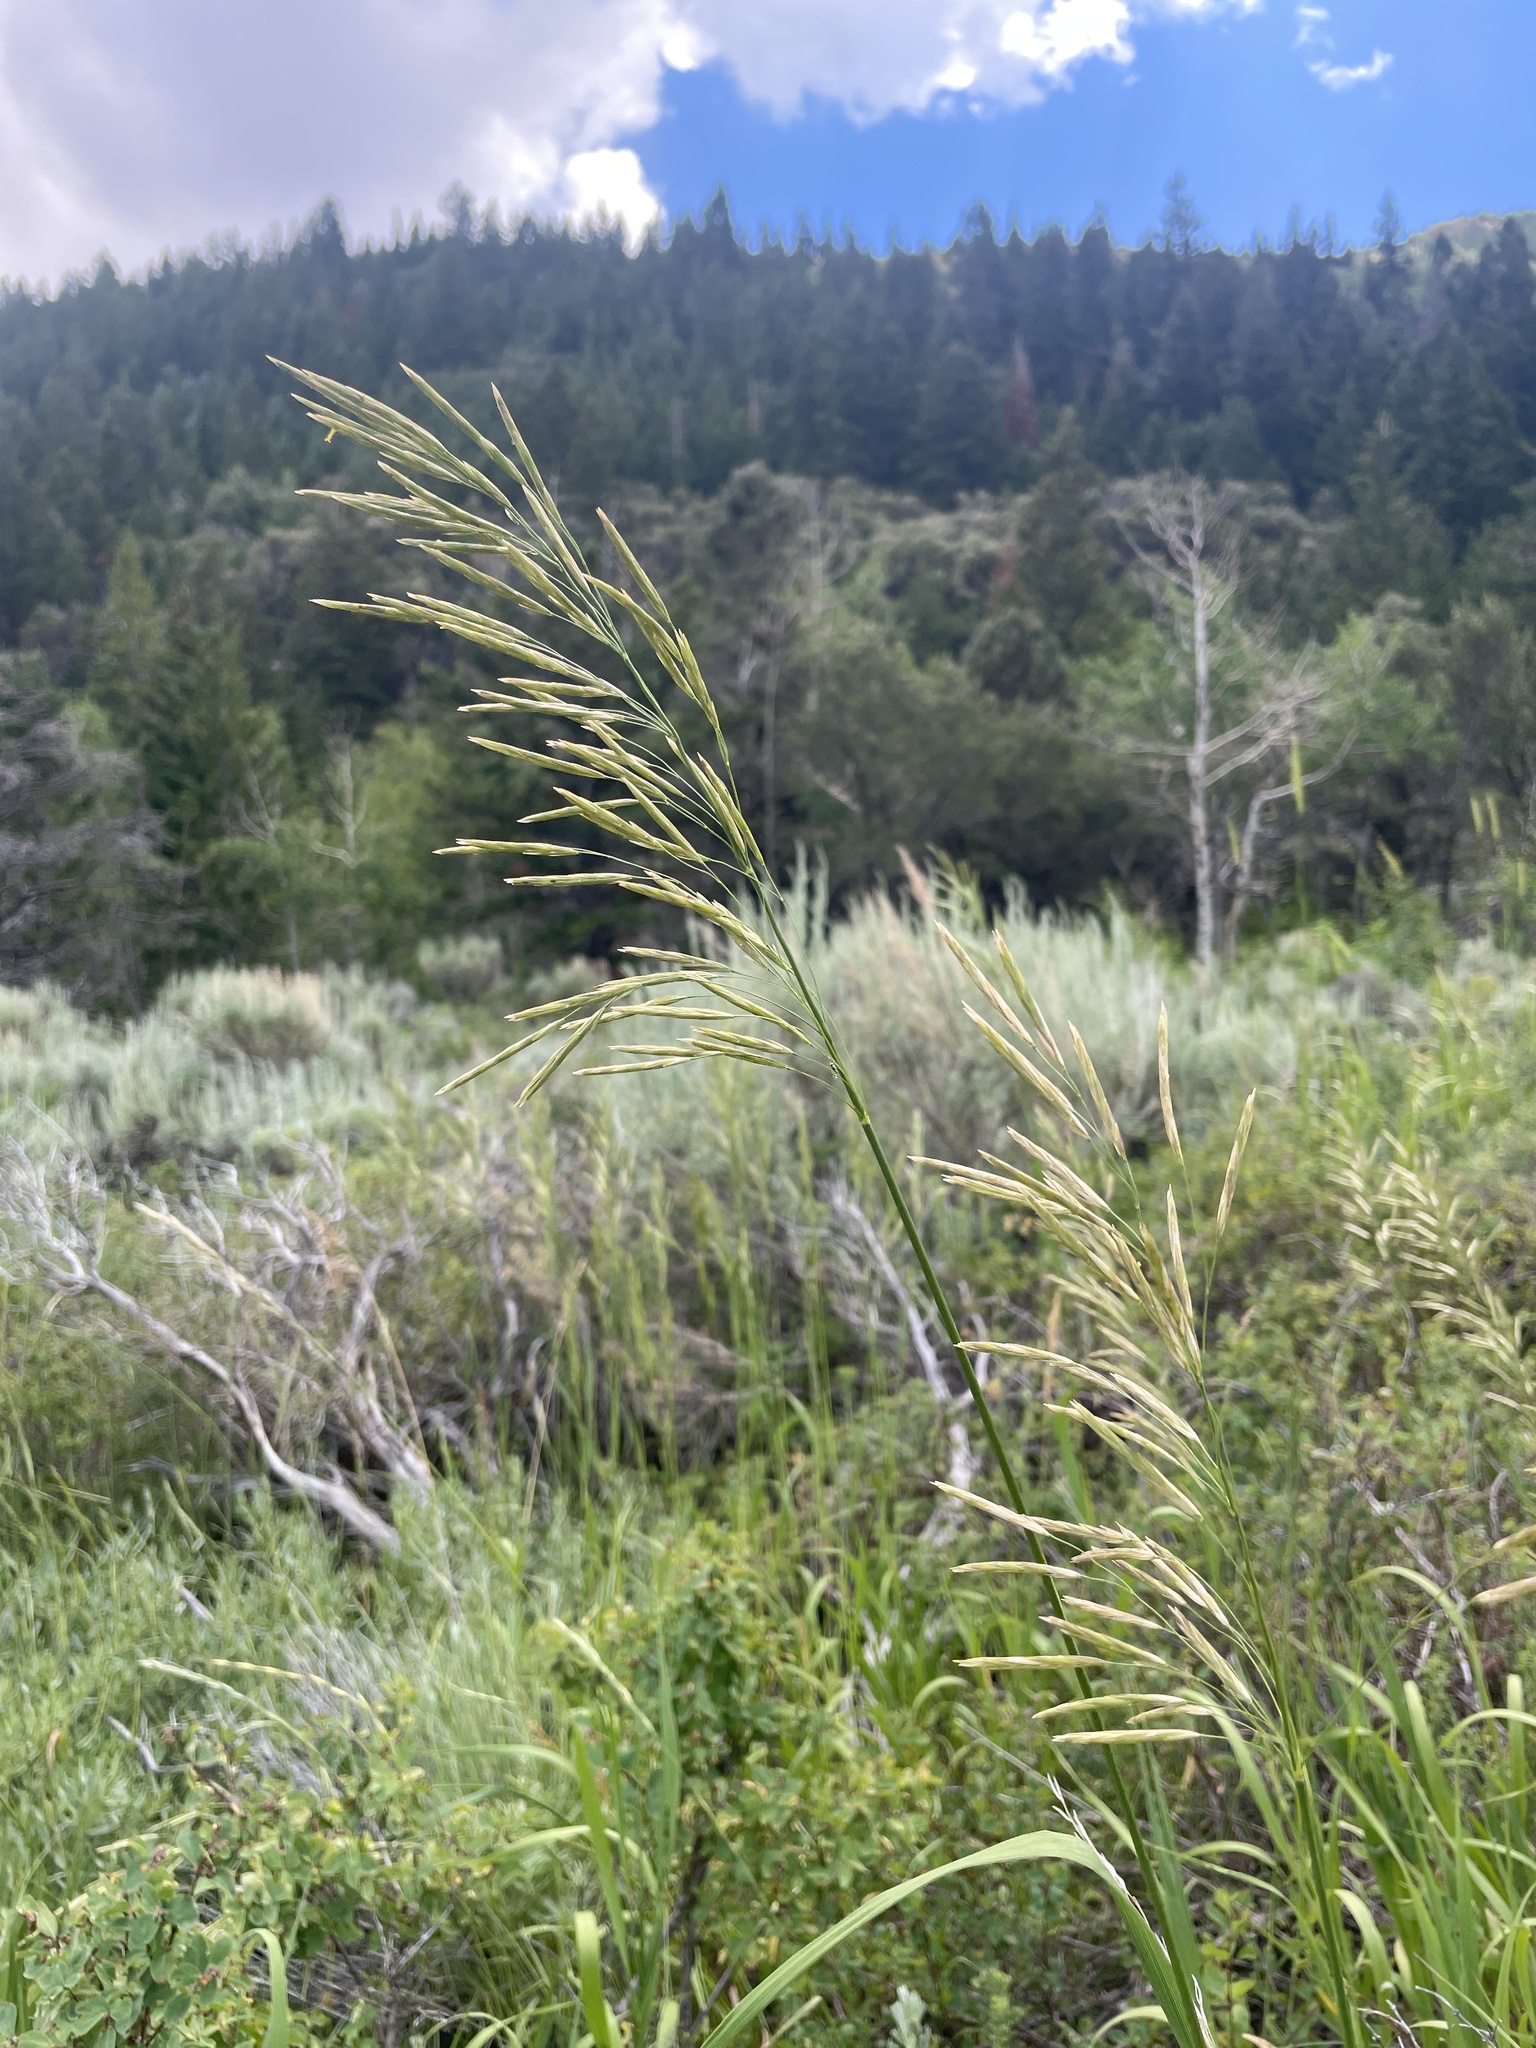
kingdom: Plantae
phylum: Tracheophyta
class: Liliopsida
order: Poales
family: Poaceae
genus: Bromus
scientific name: Bromus inermis
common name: Smooth brome
